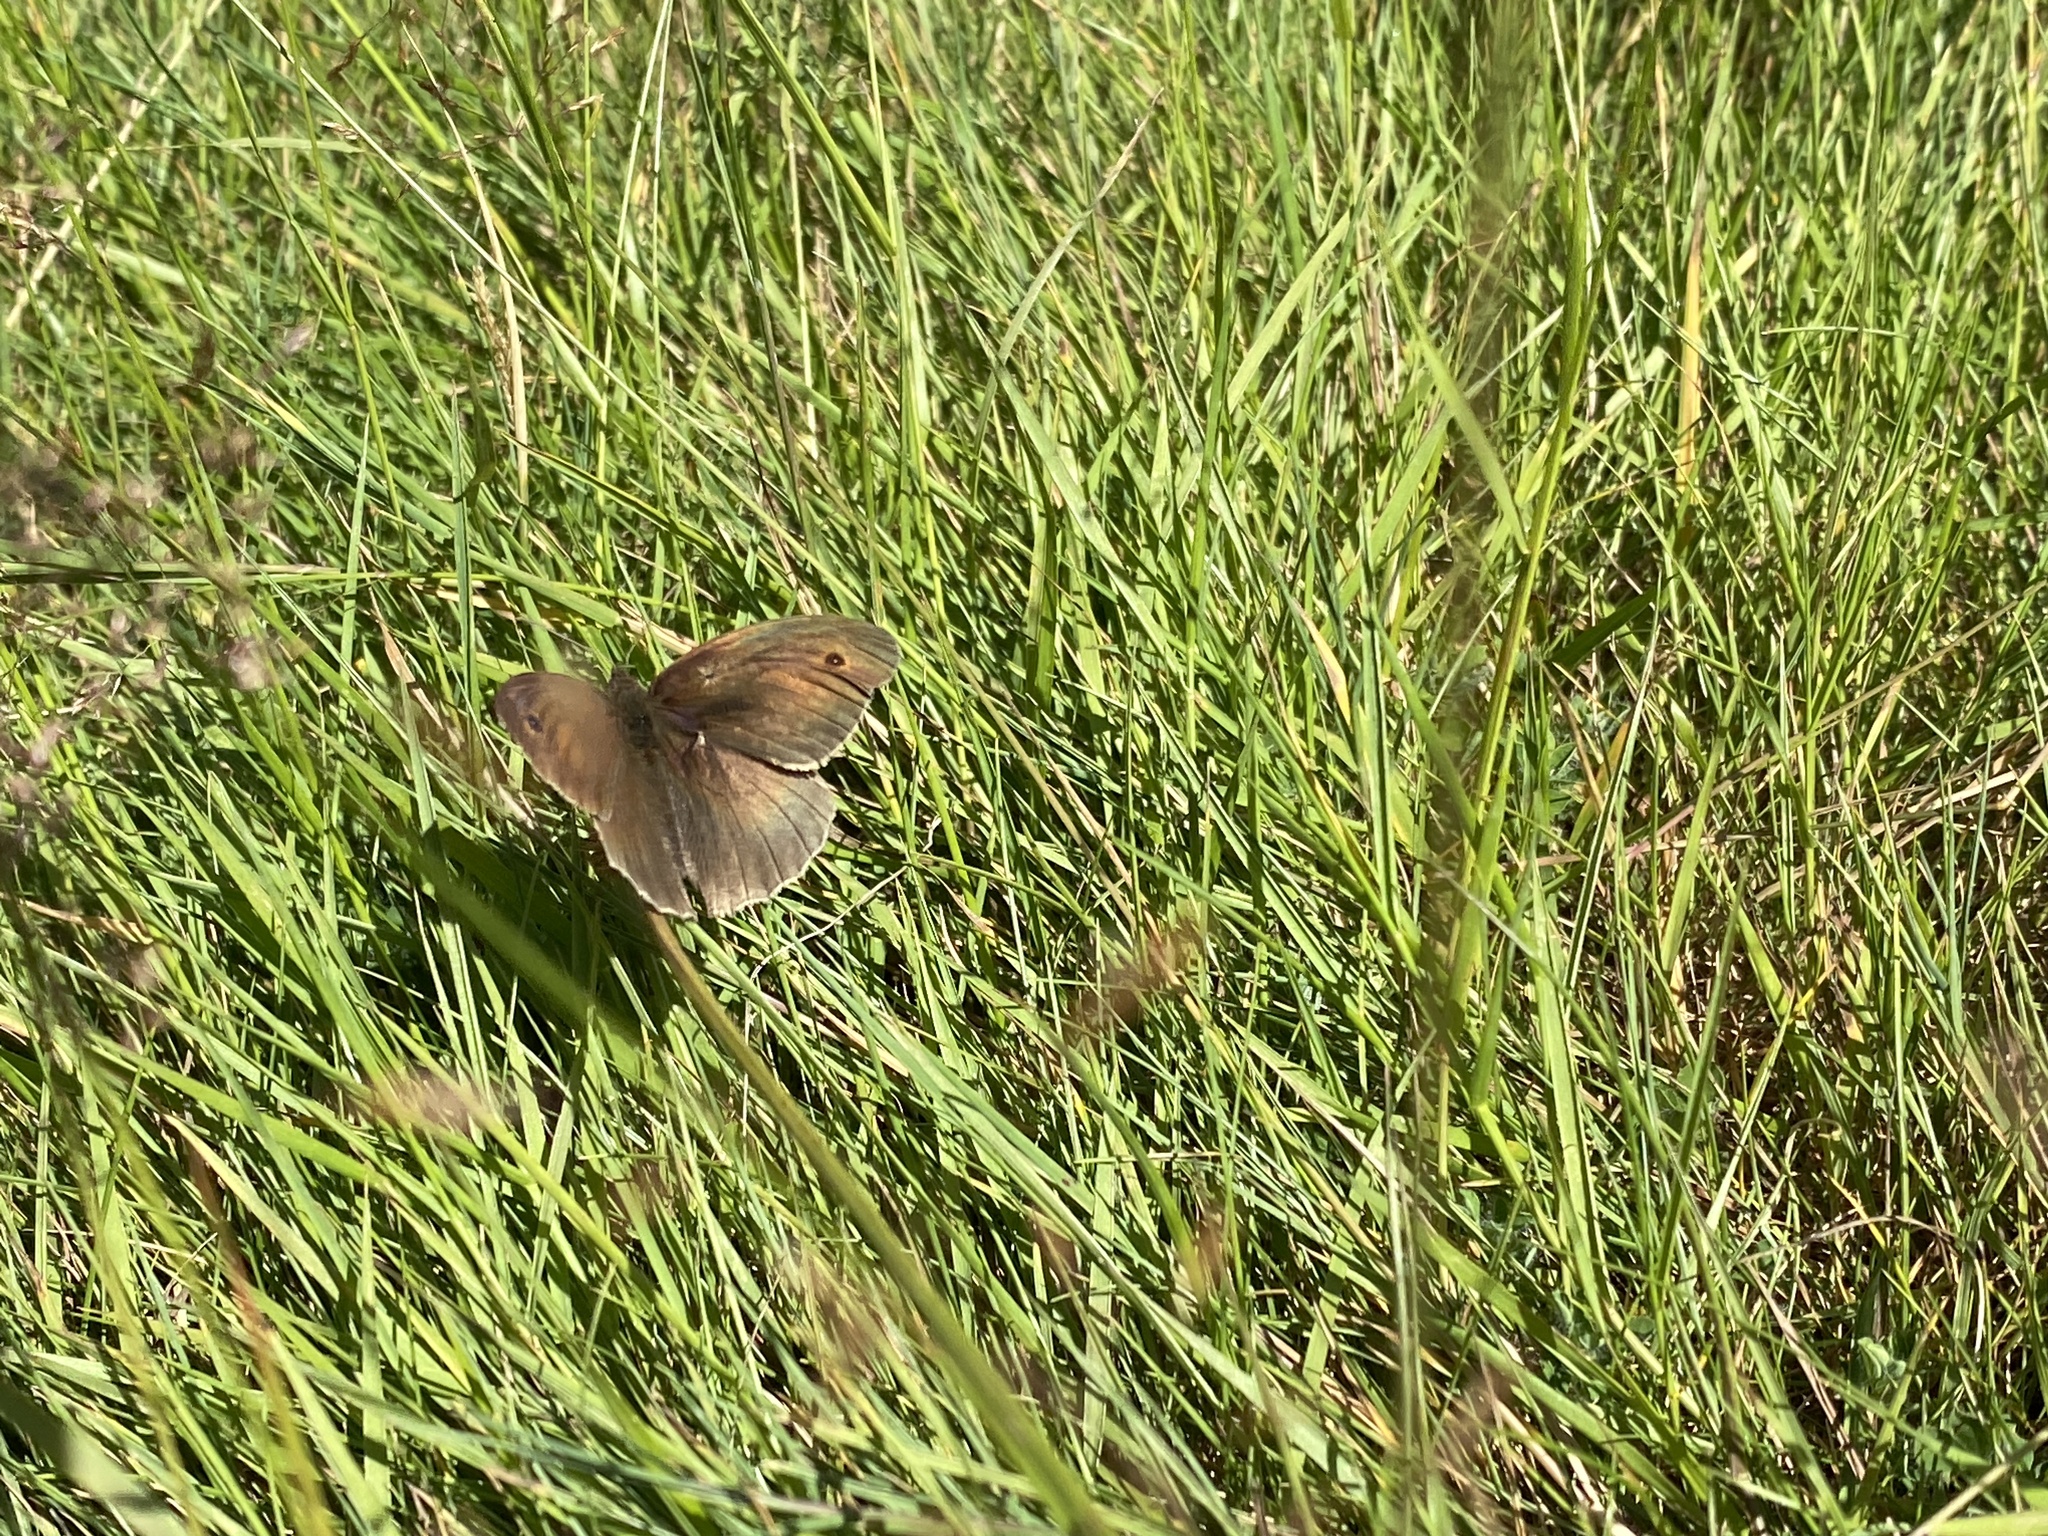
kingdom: Animalia
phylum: Arthropoda
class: Insecta
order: Lepidoptera
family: Nymphalidae
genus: Maniola
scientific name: Maniola jurtina
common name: Meadow brown
